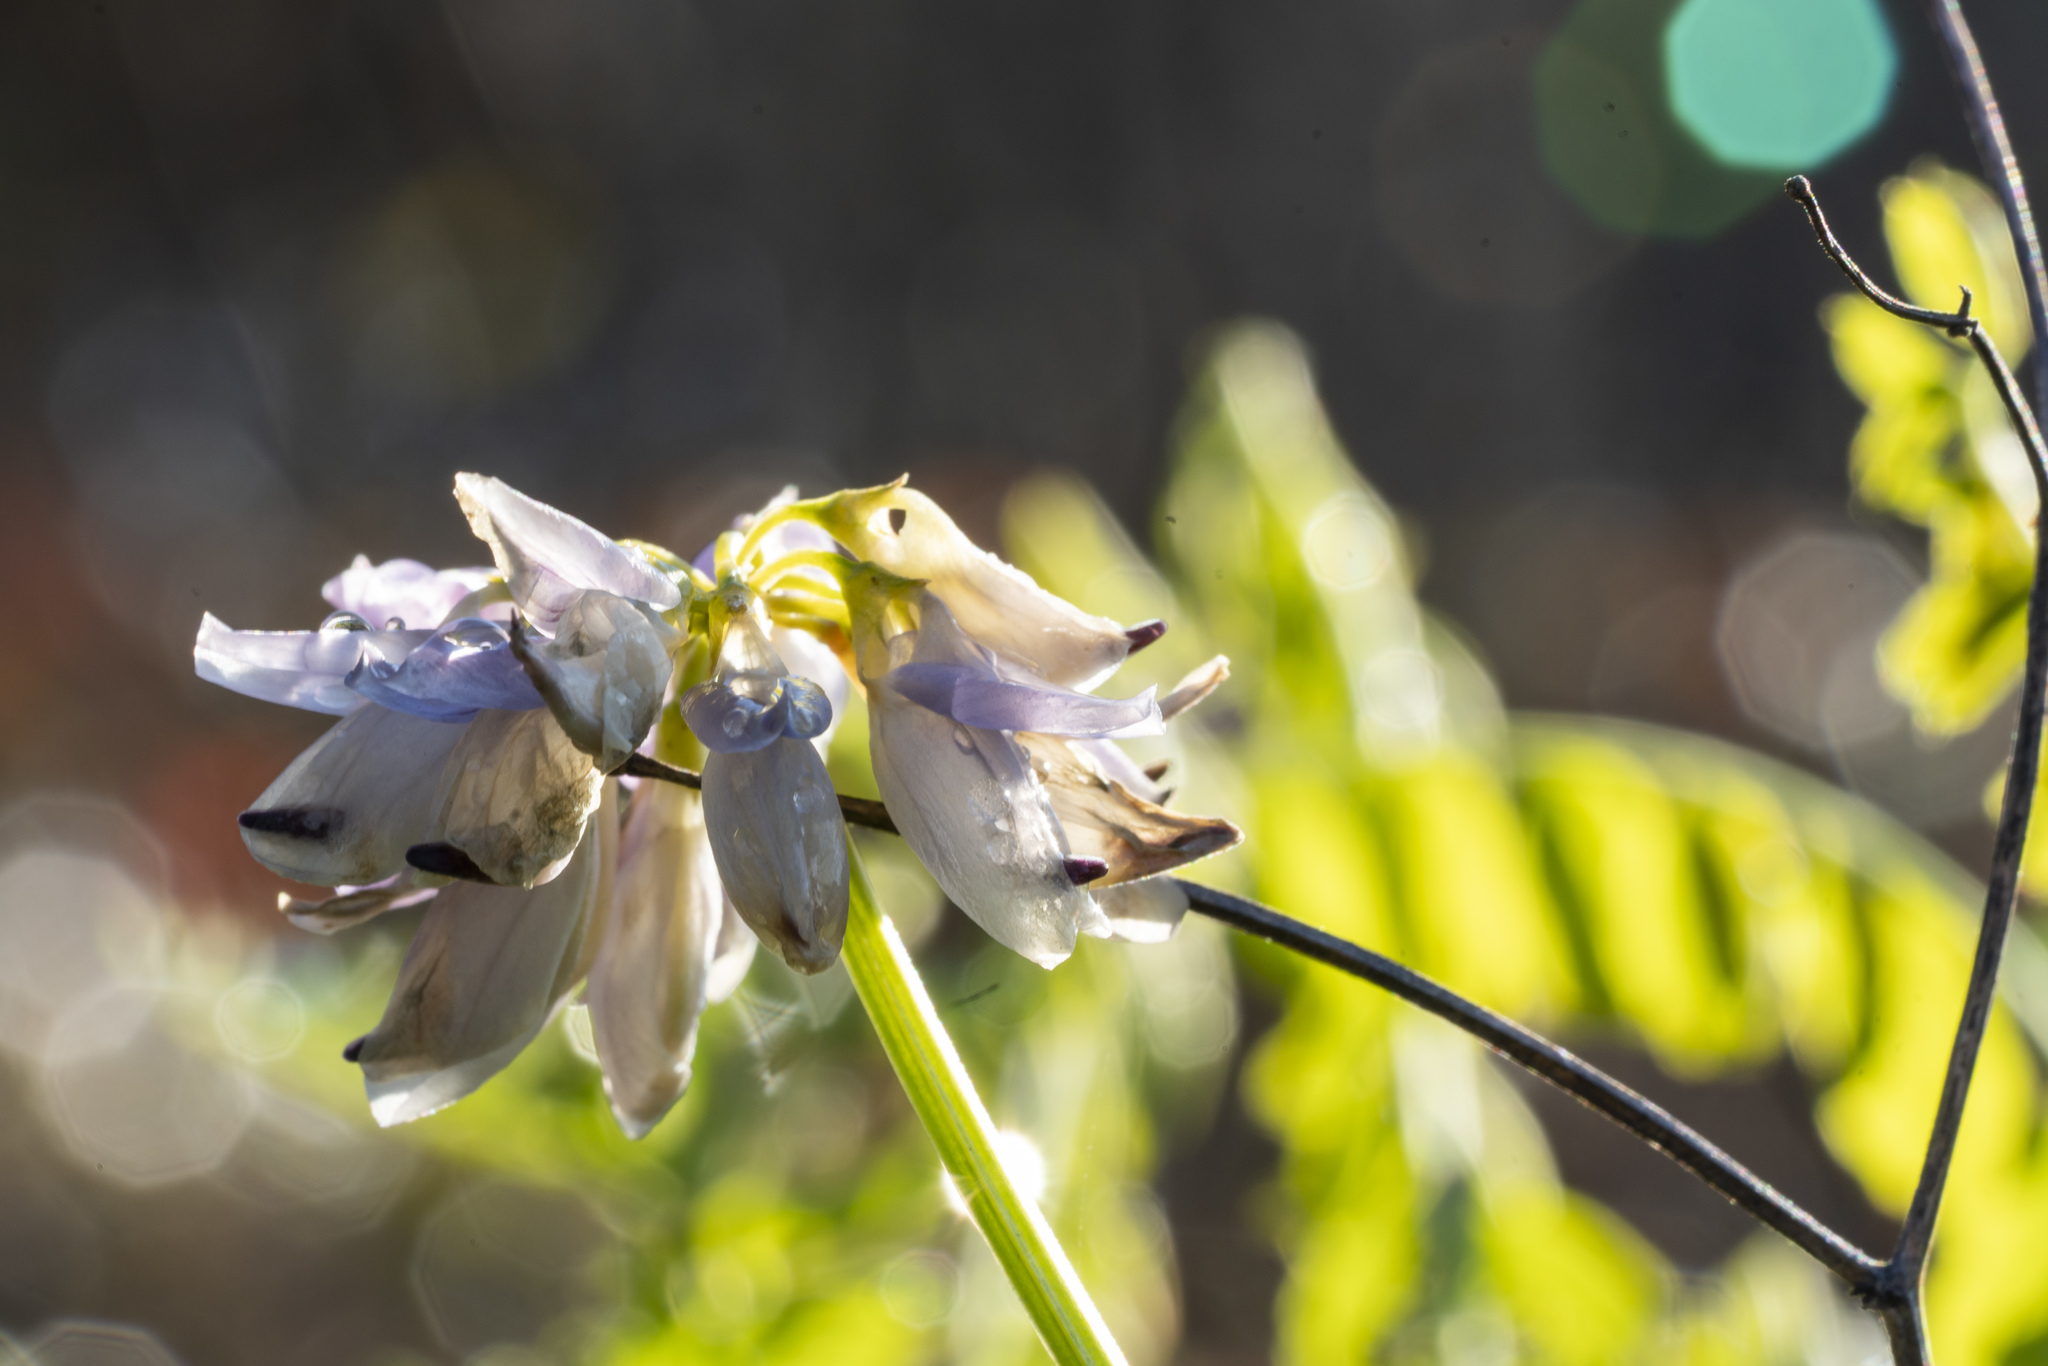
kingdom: Plantae
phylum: Tracheophyta
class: Magnoliopsida
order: Fabales
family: Fabaceae
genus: Coronilla
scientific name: Coronilla varia
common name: Crownvetch
